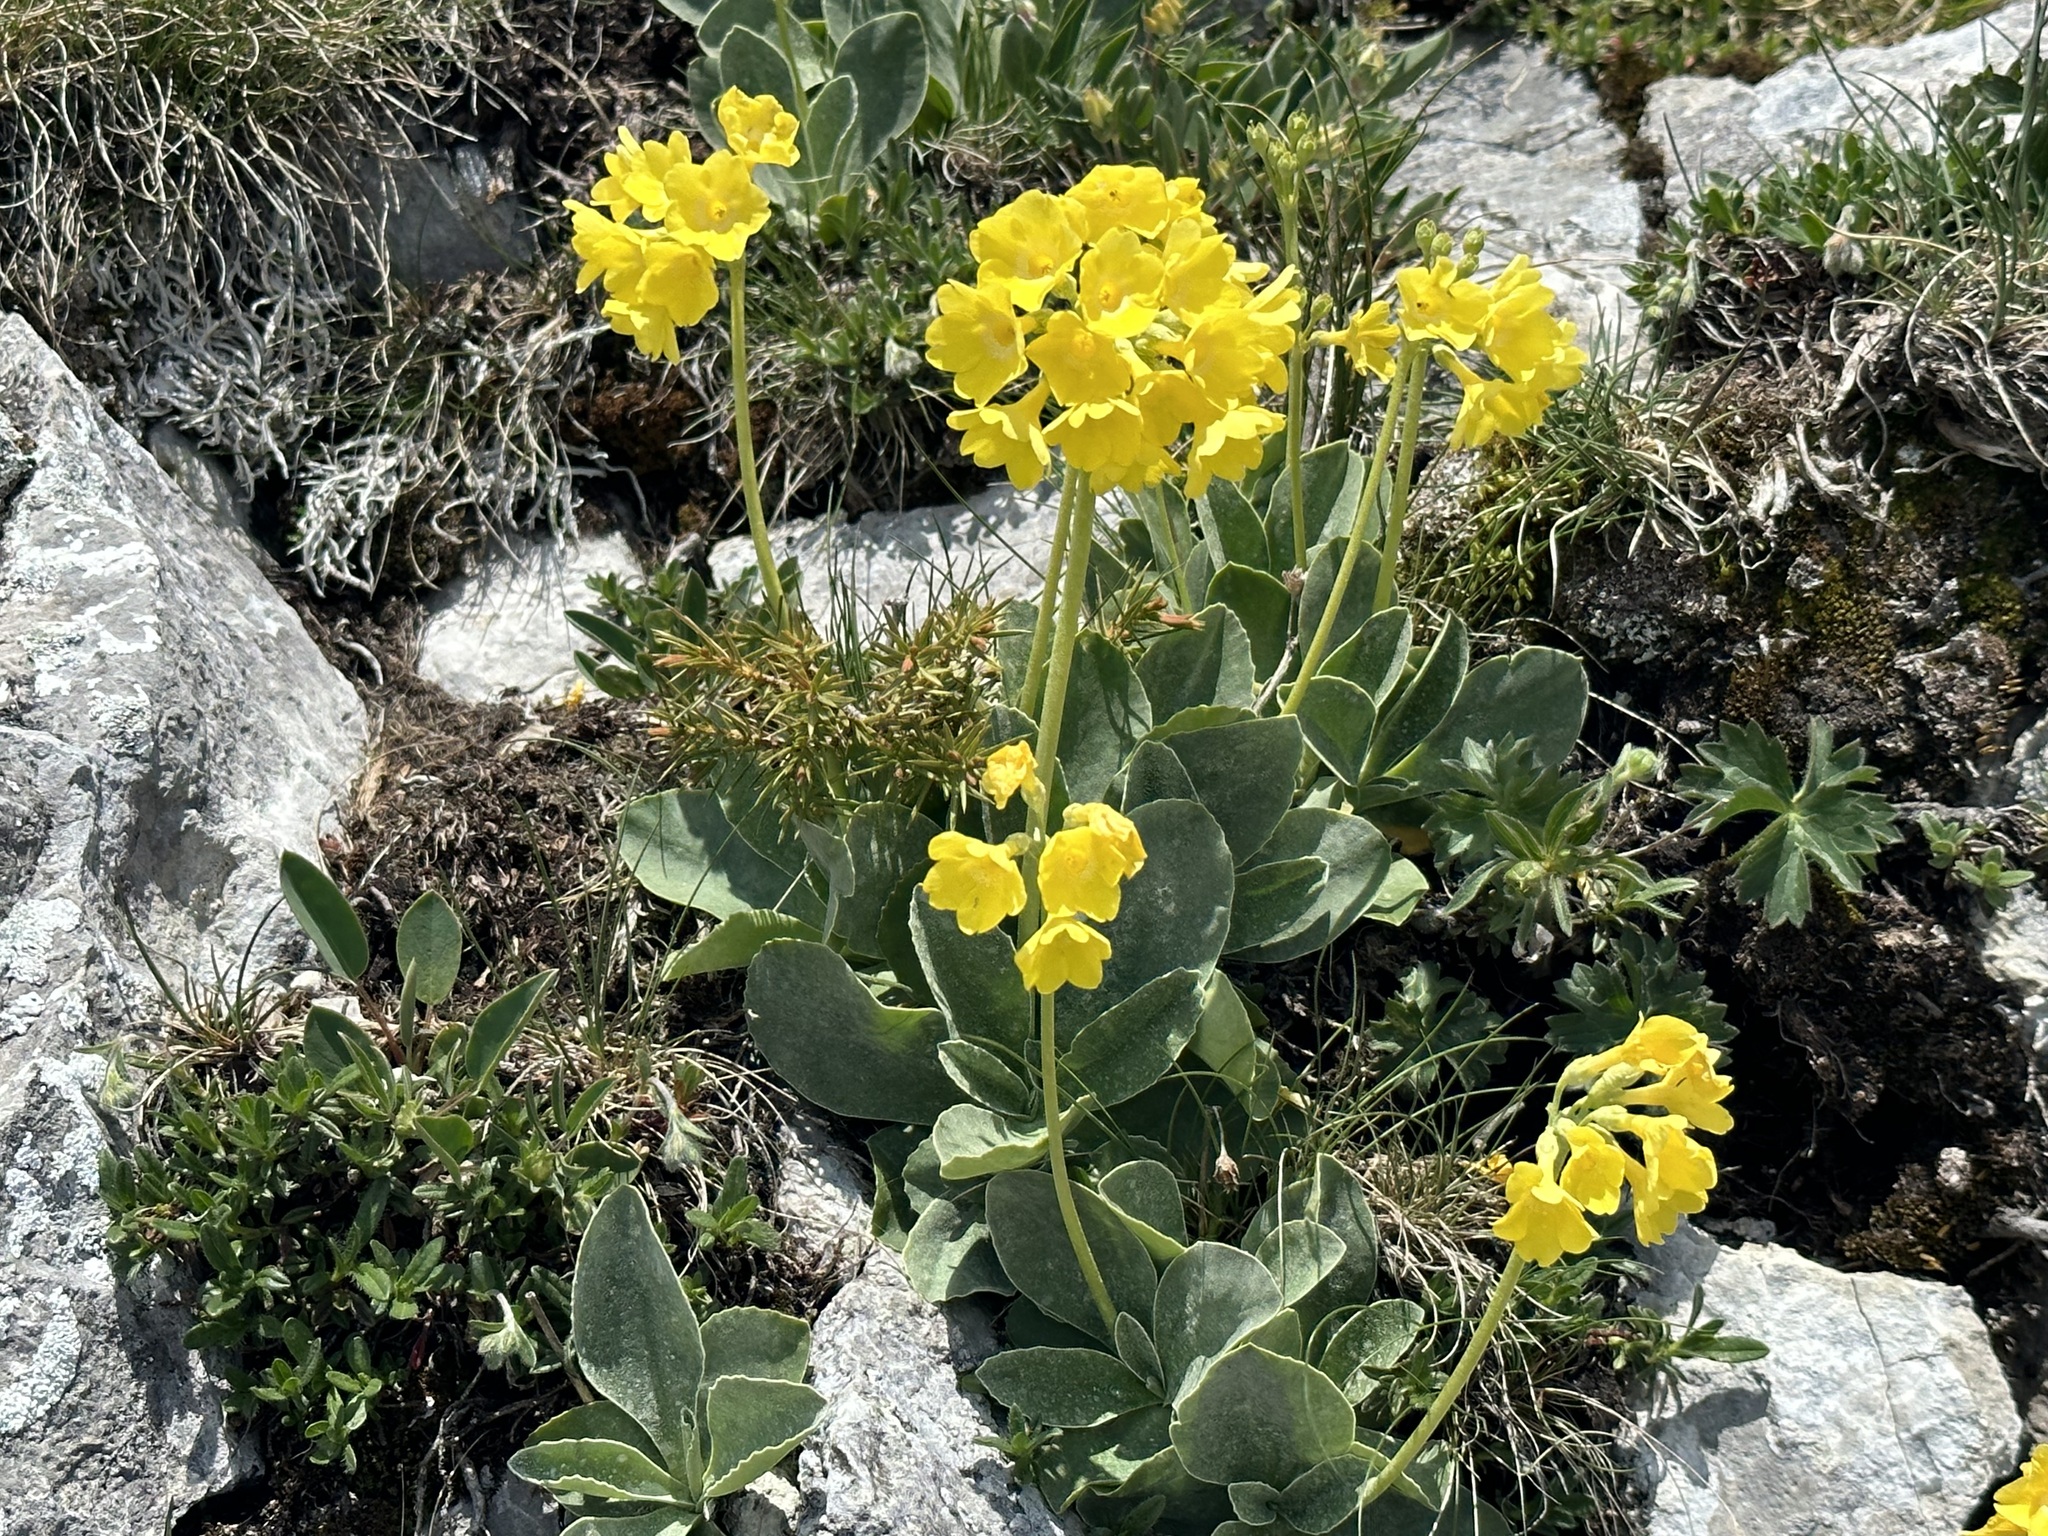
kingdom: Plantae
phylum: Tracheophyta
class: Magnoliopsida
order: Ericales
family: Primulaceae
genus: Primula
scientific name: Primula auricula
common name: Auricula
